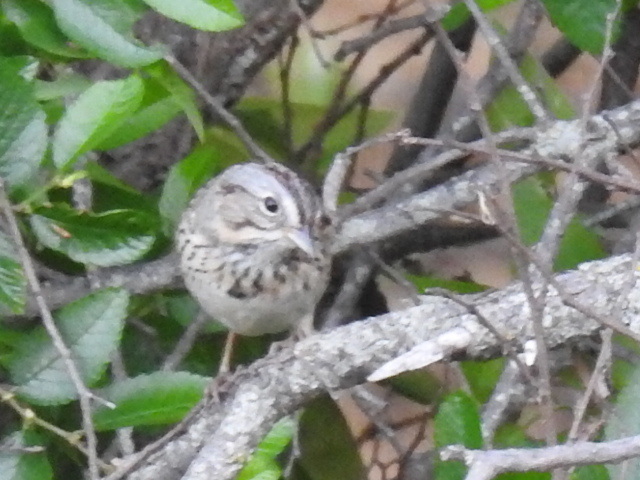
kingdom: Animalia
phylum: Chordata
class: Aves
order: Passeriformes
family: Passerellidae
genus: Melospiza
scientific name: Melospiza lincolnii
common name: Lincoln's sparrow
